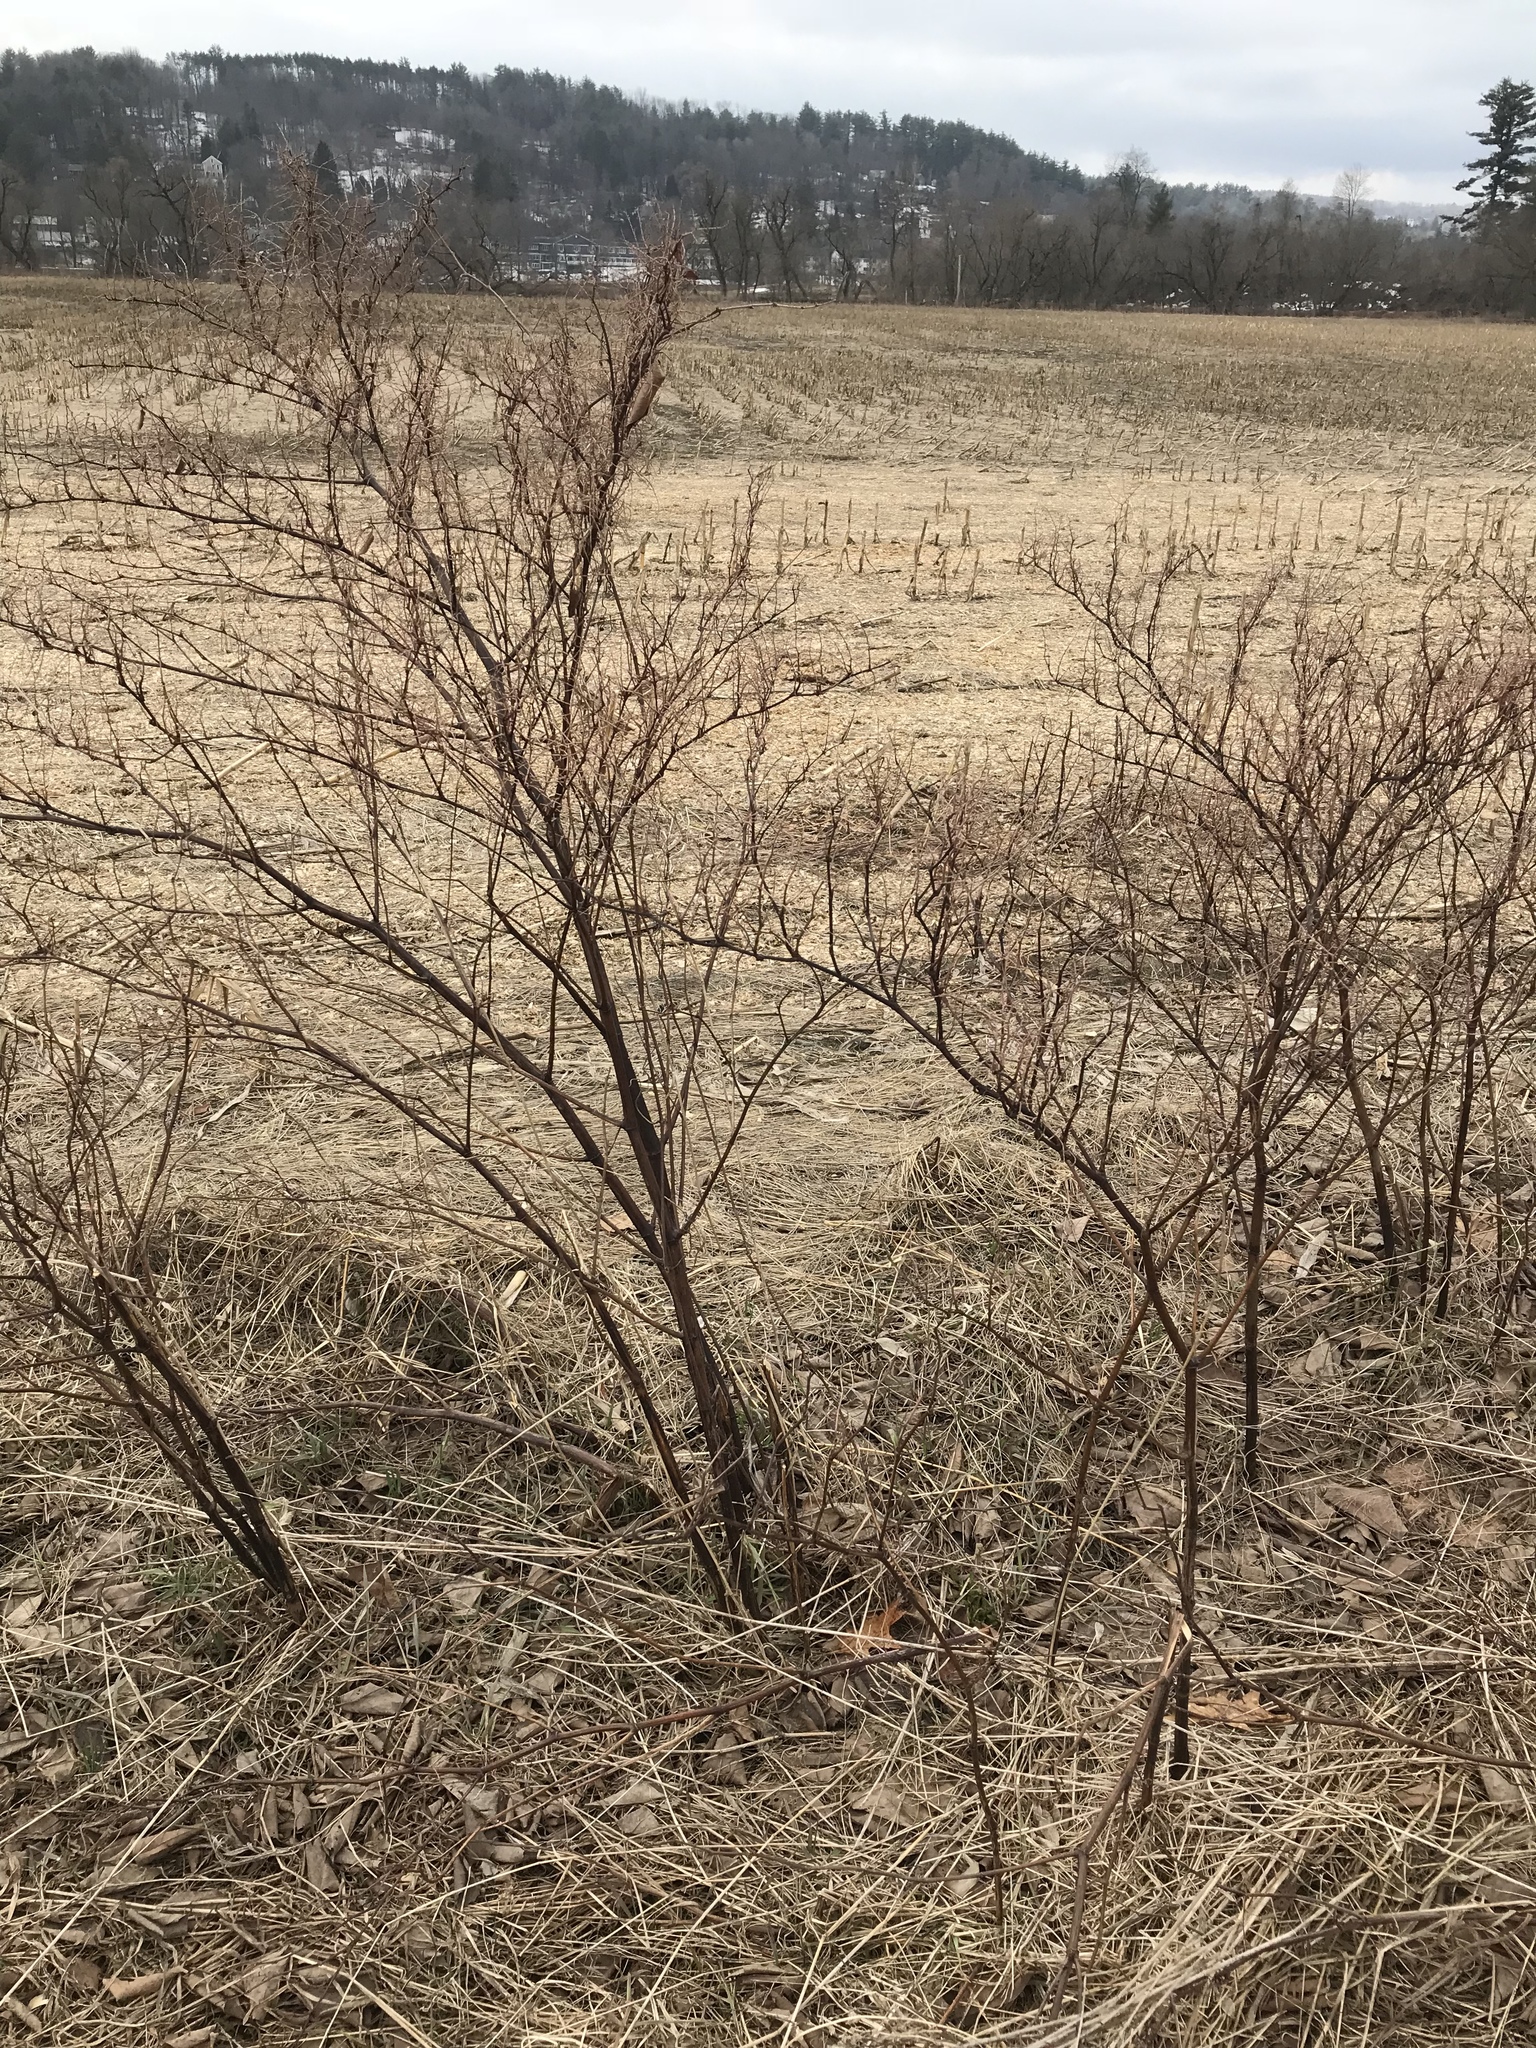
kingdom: Plantae
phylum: Tracheophyta
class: Magnoliopsida
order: Caryophyllales
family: Polygonaceae
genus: Reynoutria
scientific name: Reynoutria japonica
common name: Japanese knotweed
